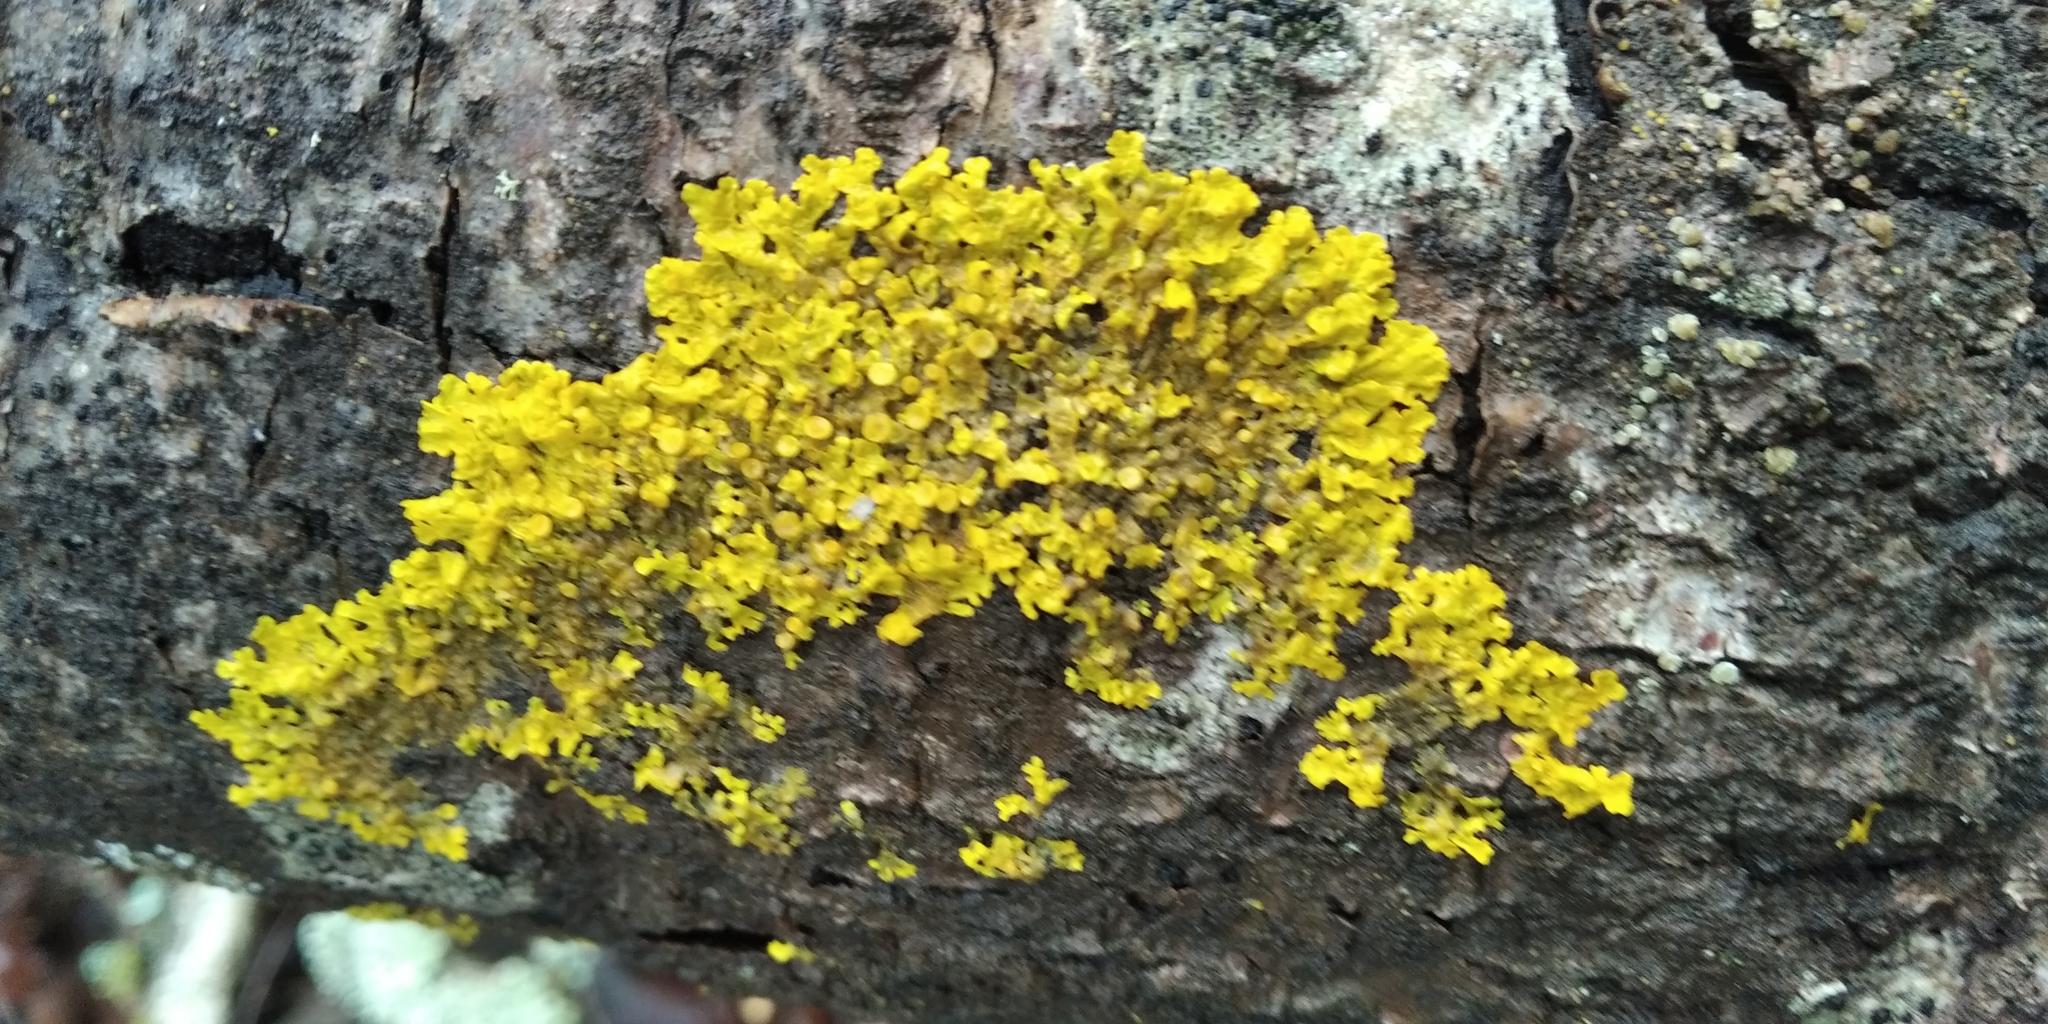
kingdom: Fungi
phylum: Ascomycota
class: Lecanoromycetes
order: Teloschistales
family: Teloschistaceae
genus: Xanthoria
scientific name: Xanthoria parietina
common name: Common orange lichen
